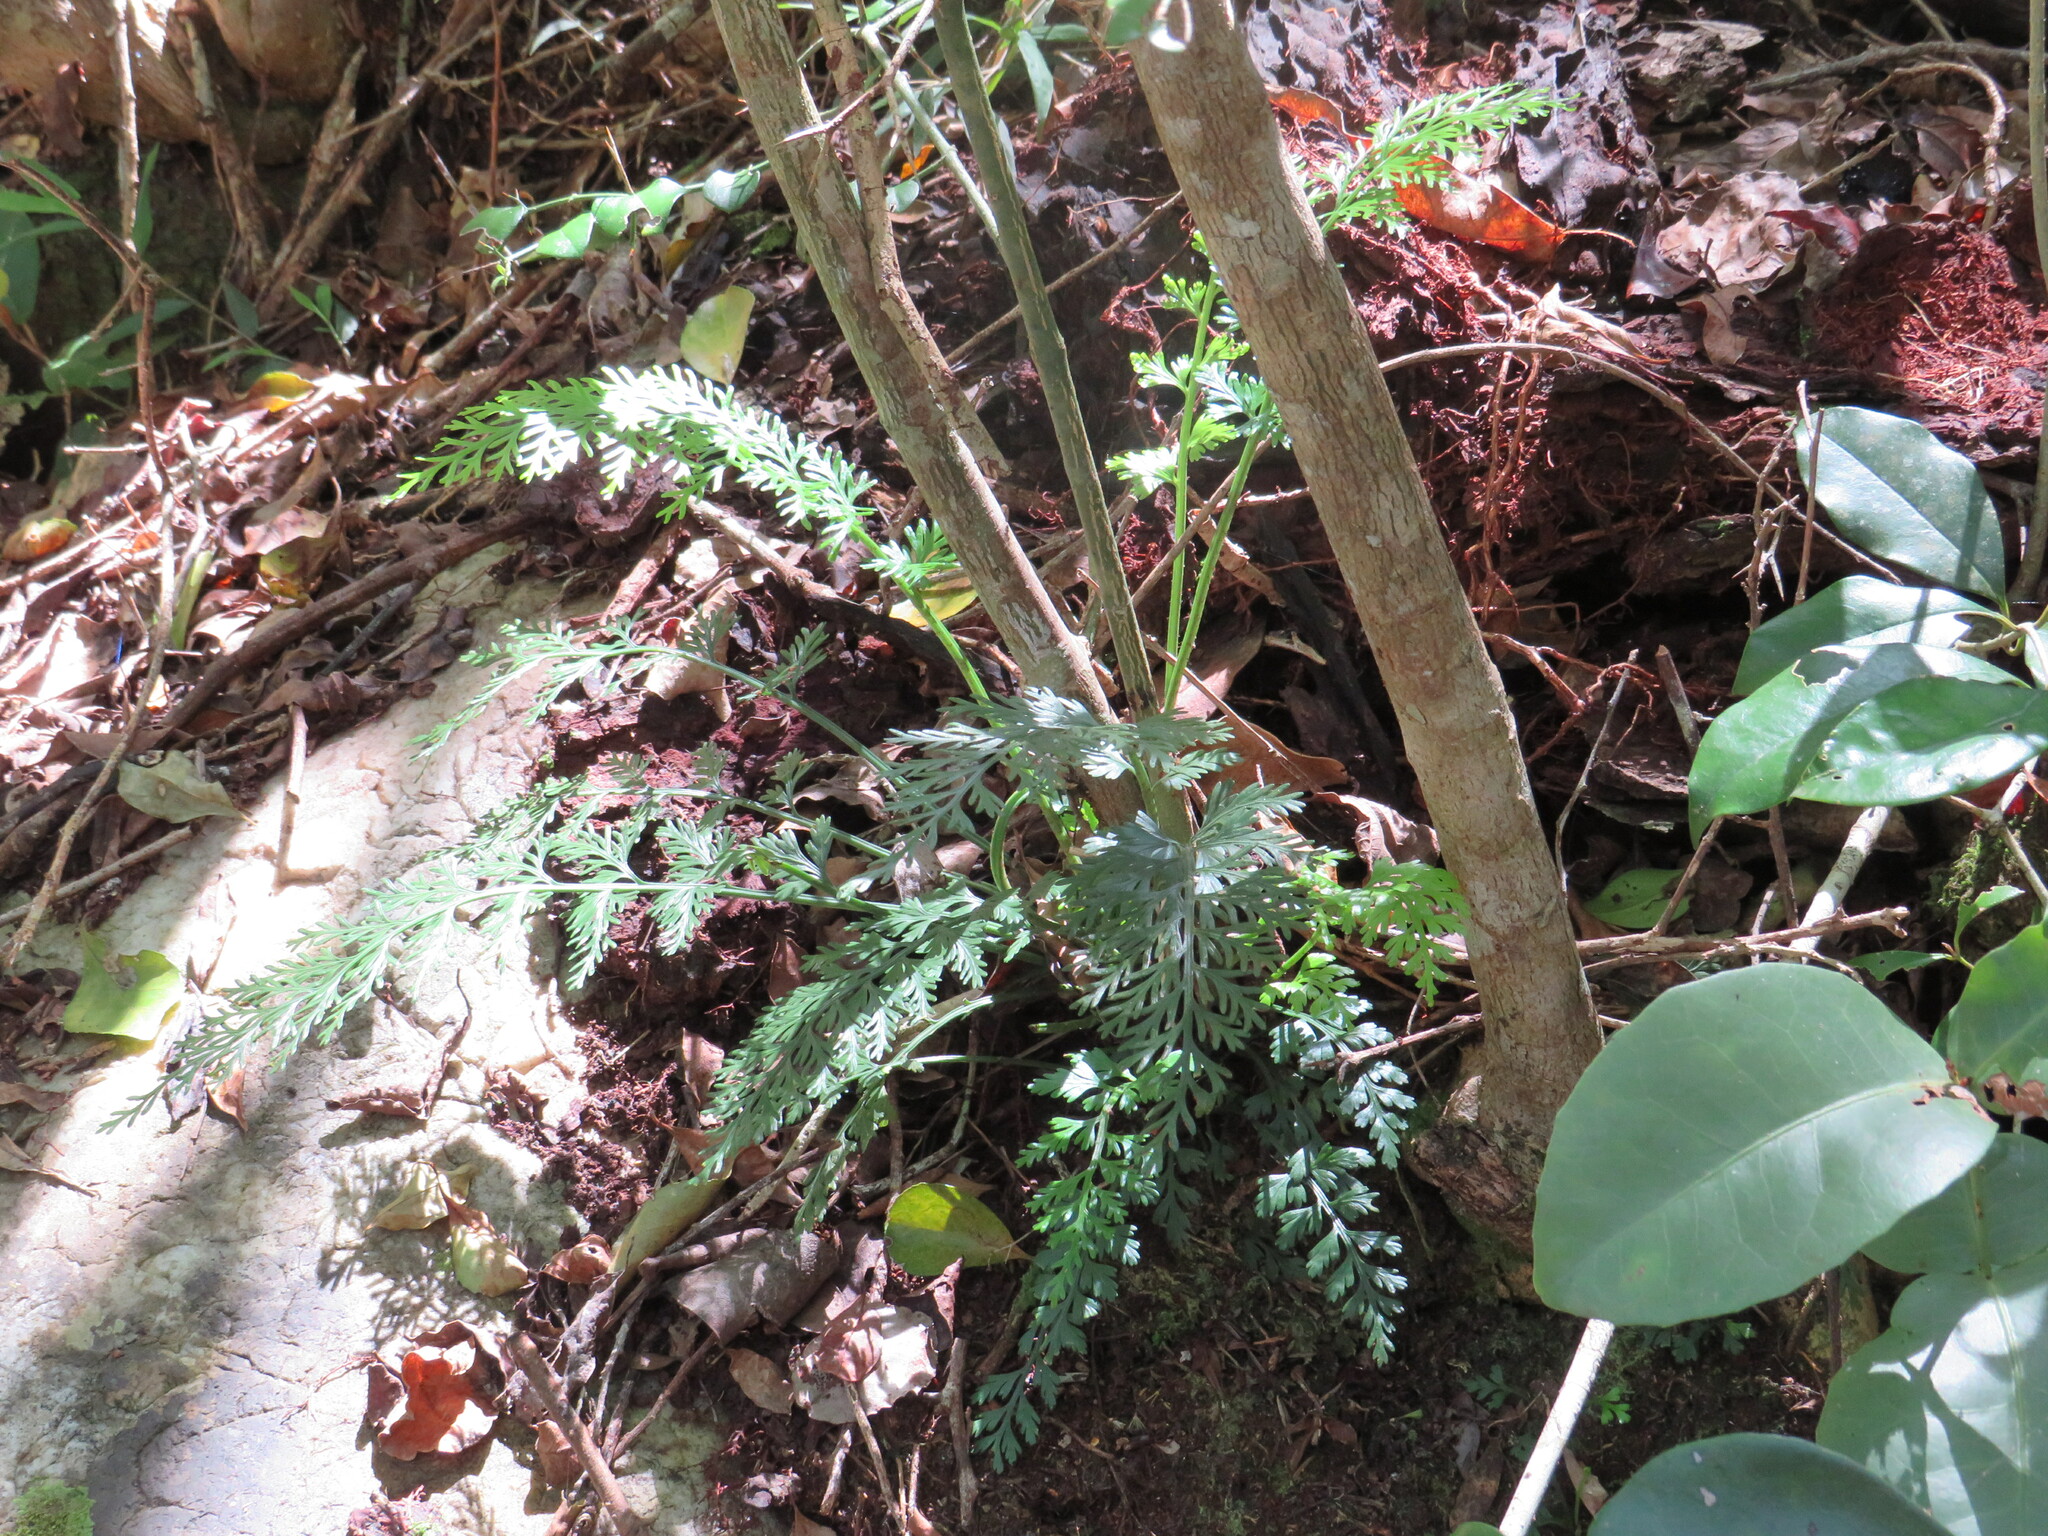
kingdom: Plantae
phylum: Tracheophyta
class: Polypodiopsida
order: Polypodiales
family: Aspleniaceae
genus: Asplenium
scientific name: Asplenium rutifolium
